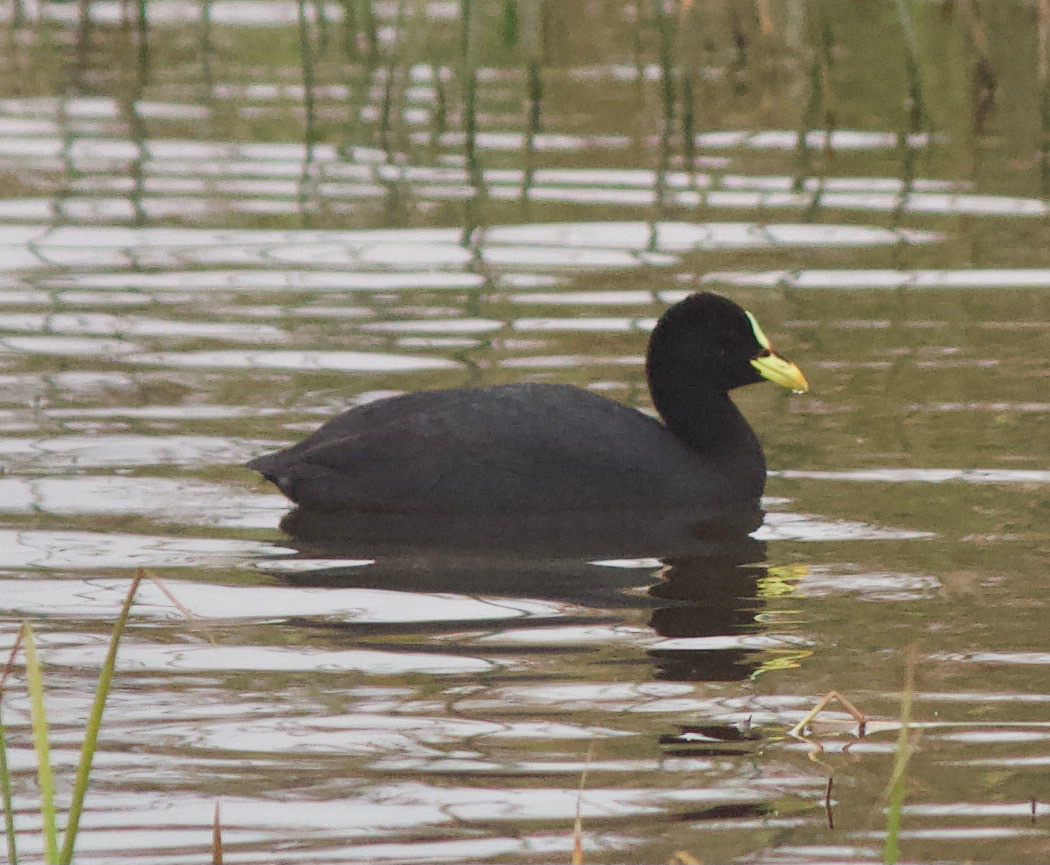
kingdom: Animalia
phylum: Chordata
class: Aves
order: Gruiformes
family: Rallidae
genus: Fulica
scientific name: Fulica armillata
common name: Red-gartered coot
